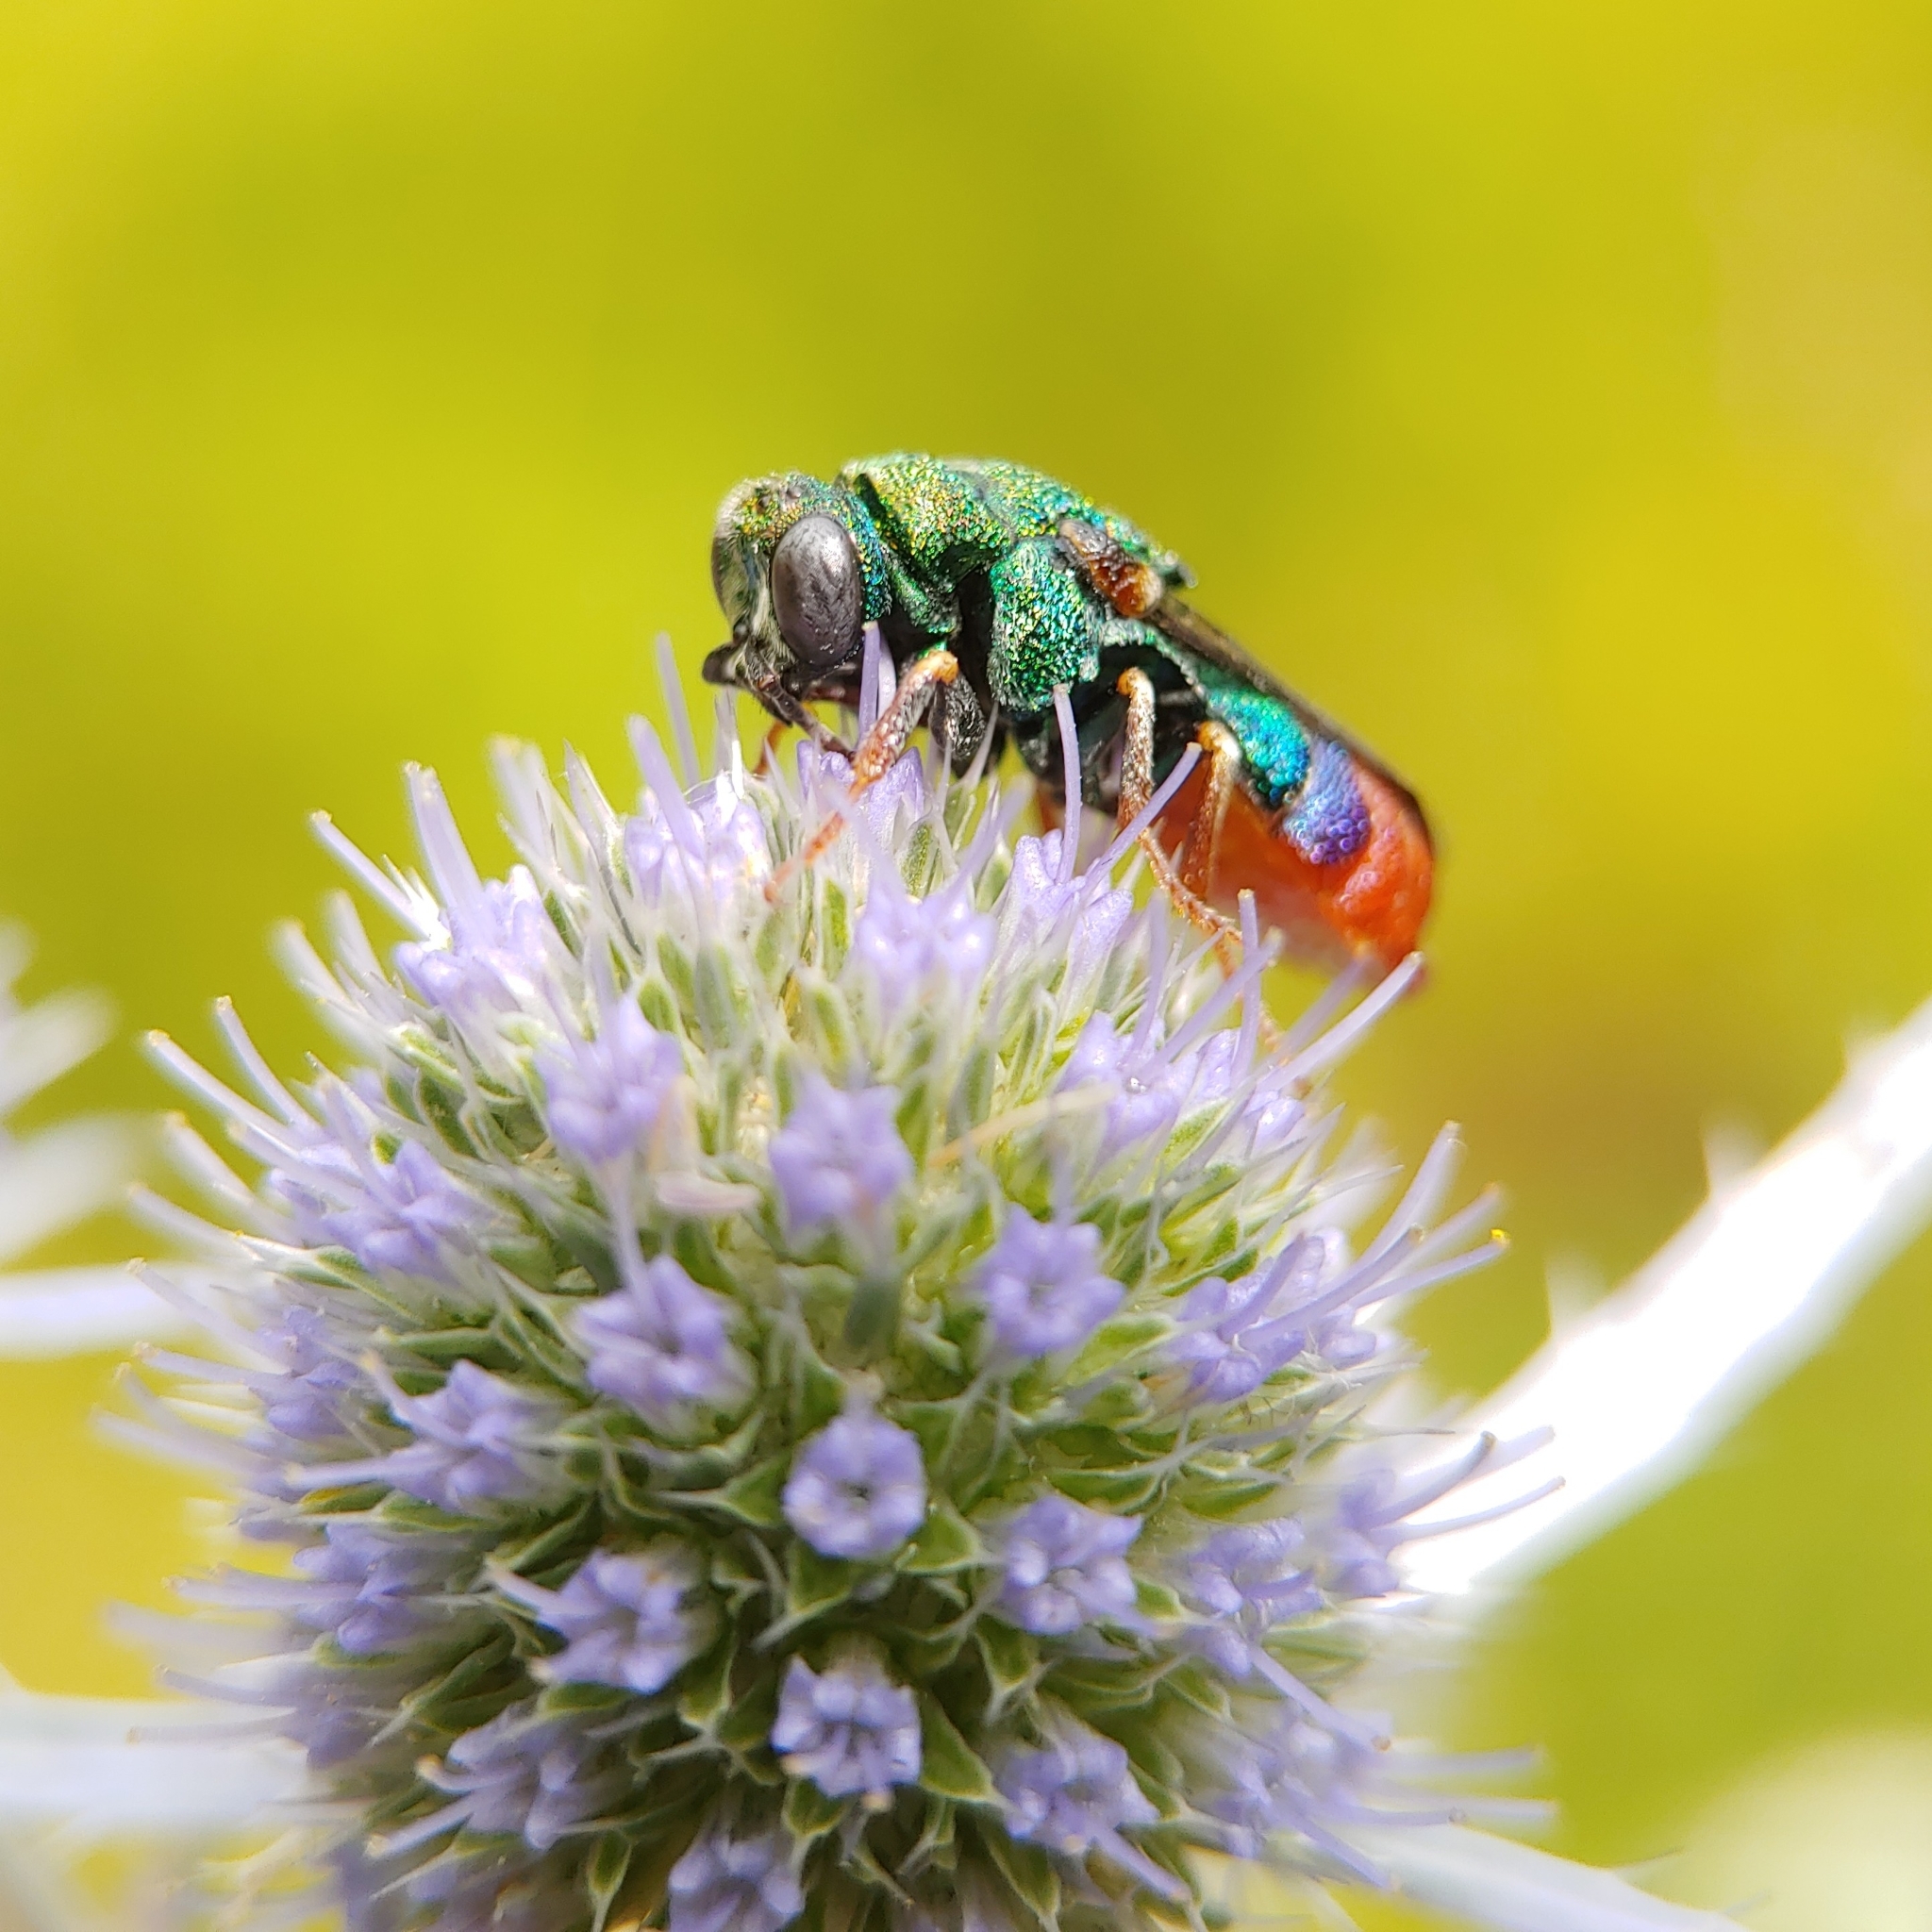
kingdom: Animalia
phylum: Arthropoda
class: Insecta
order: Hymenoptera
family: Chrysididae
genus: Parnopes
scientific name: Parnopes grandior
